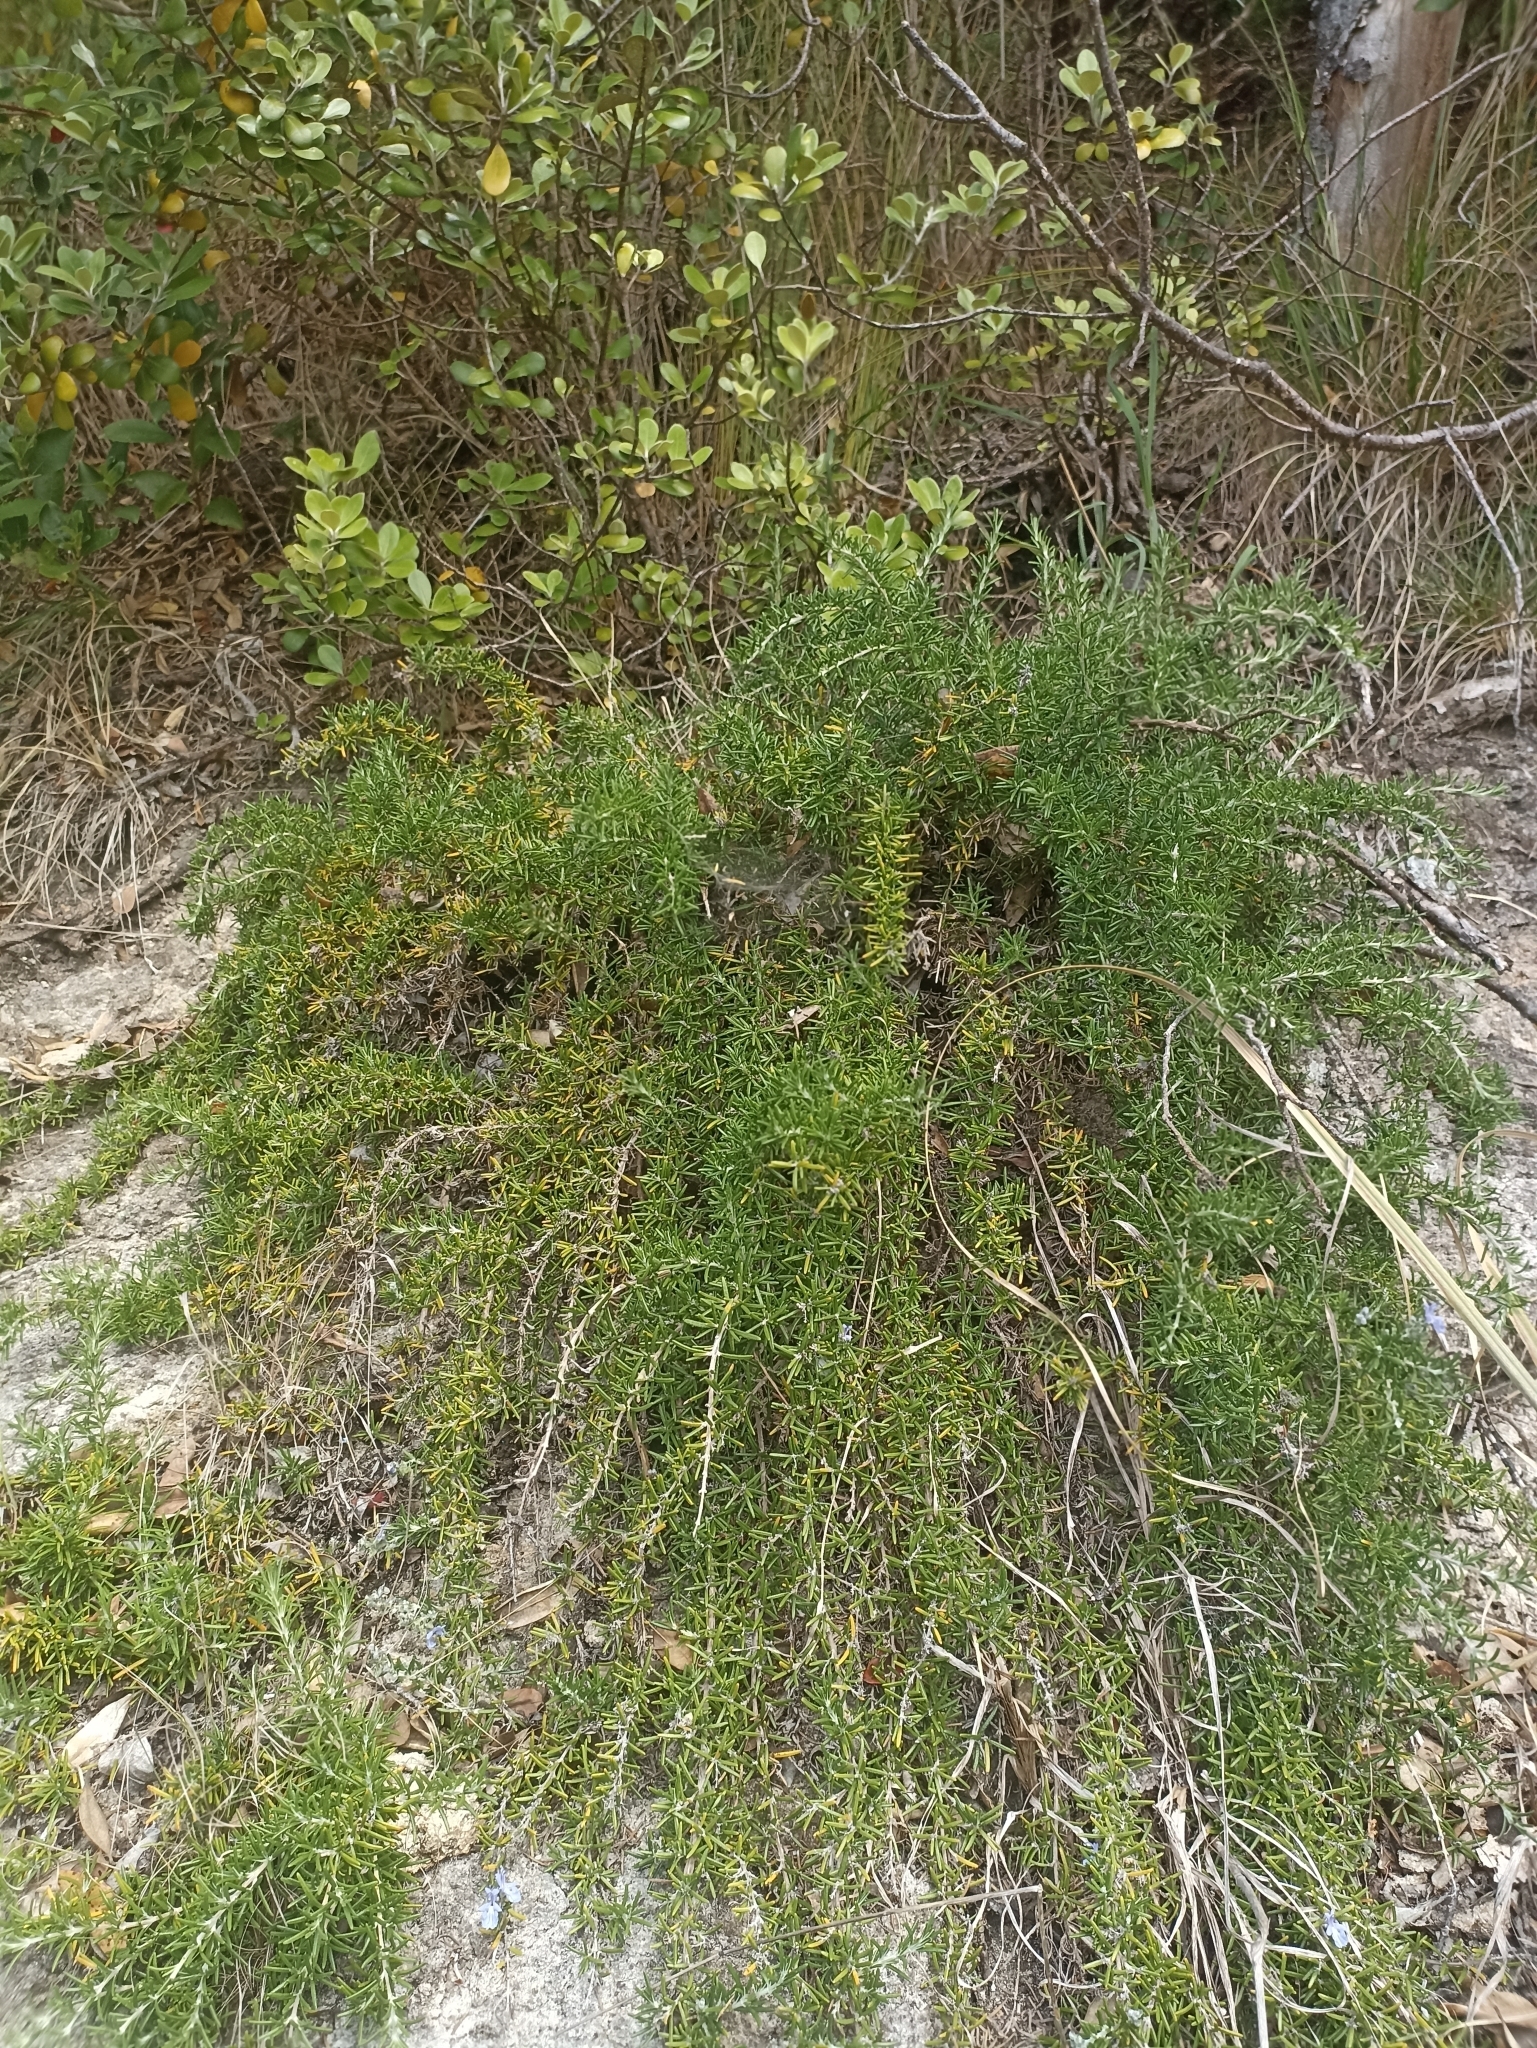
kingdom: Plantae
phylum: Tracheophyta
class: Magnoliopsida
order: Lamiales
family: Lamiaceae
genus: Salvia
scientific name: Salvia rosmarinus
